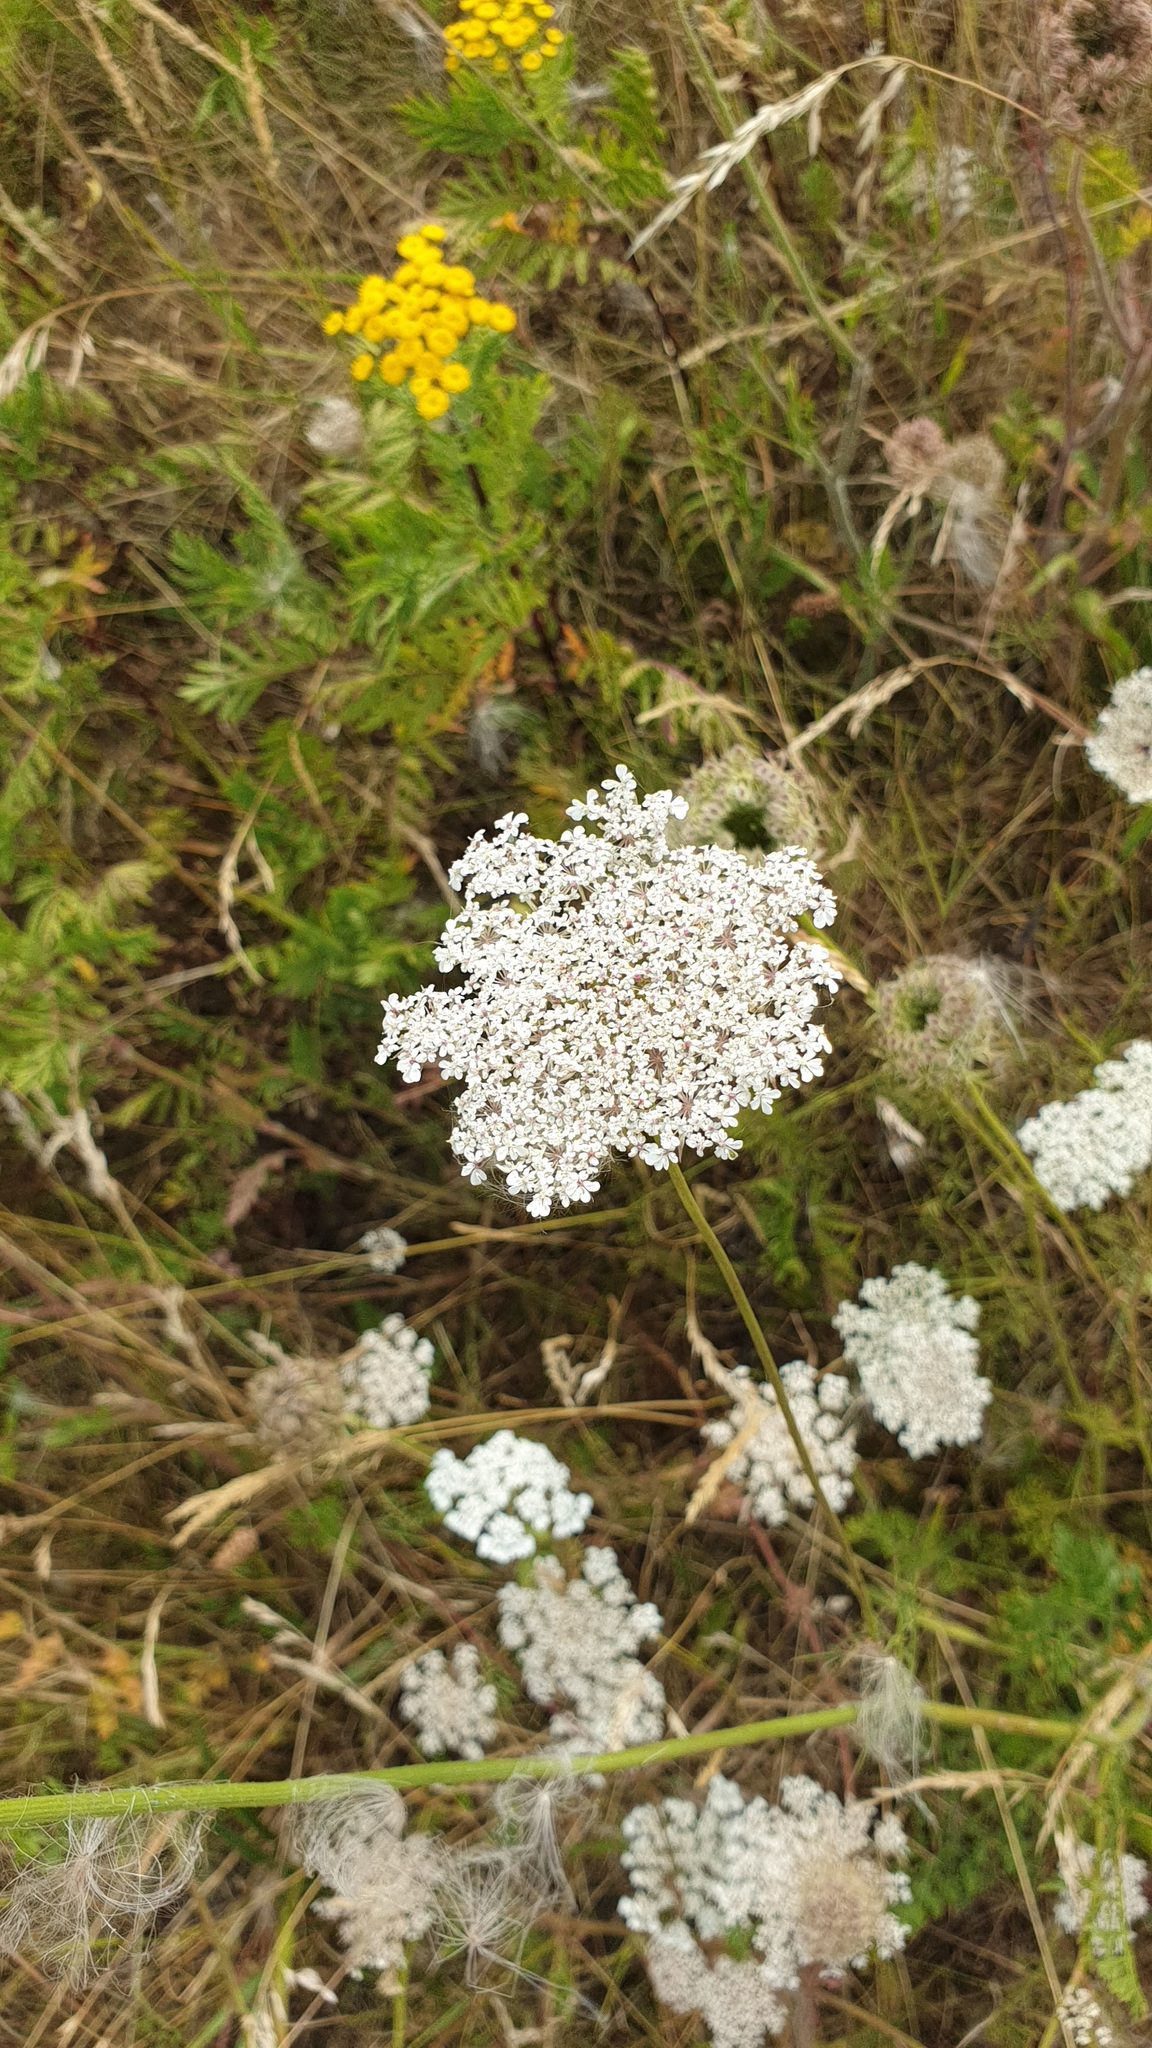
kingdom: Plantae
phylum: Tracheophyta
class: Magnoliopsida
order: Apiales
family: Apiaceae
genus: Daucus
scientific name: Daucus carota
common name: Wild carrot
